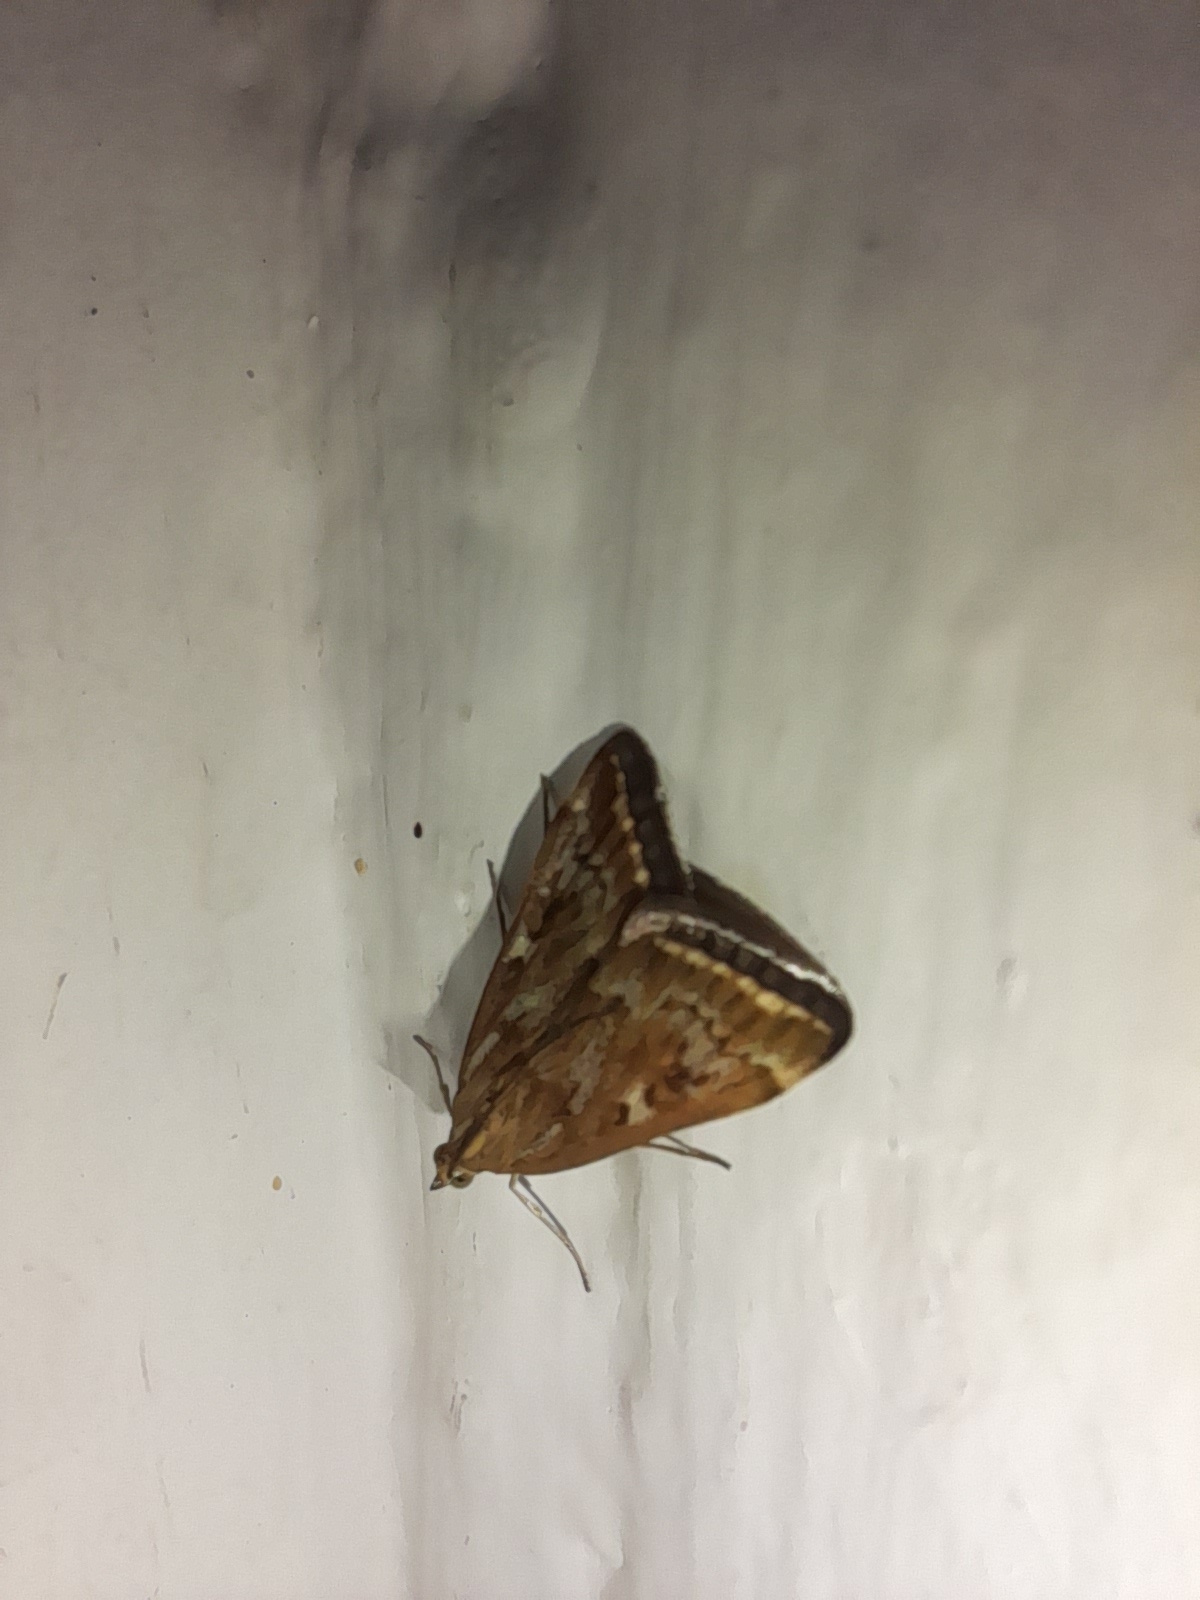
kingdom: Animalia
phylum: Arthropoda
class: Insecta
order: Lepidoptera
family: Crambidae
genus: Loxostege
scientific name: Loxostege sticticalis
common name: Crambid moth
